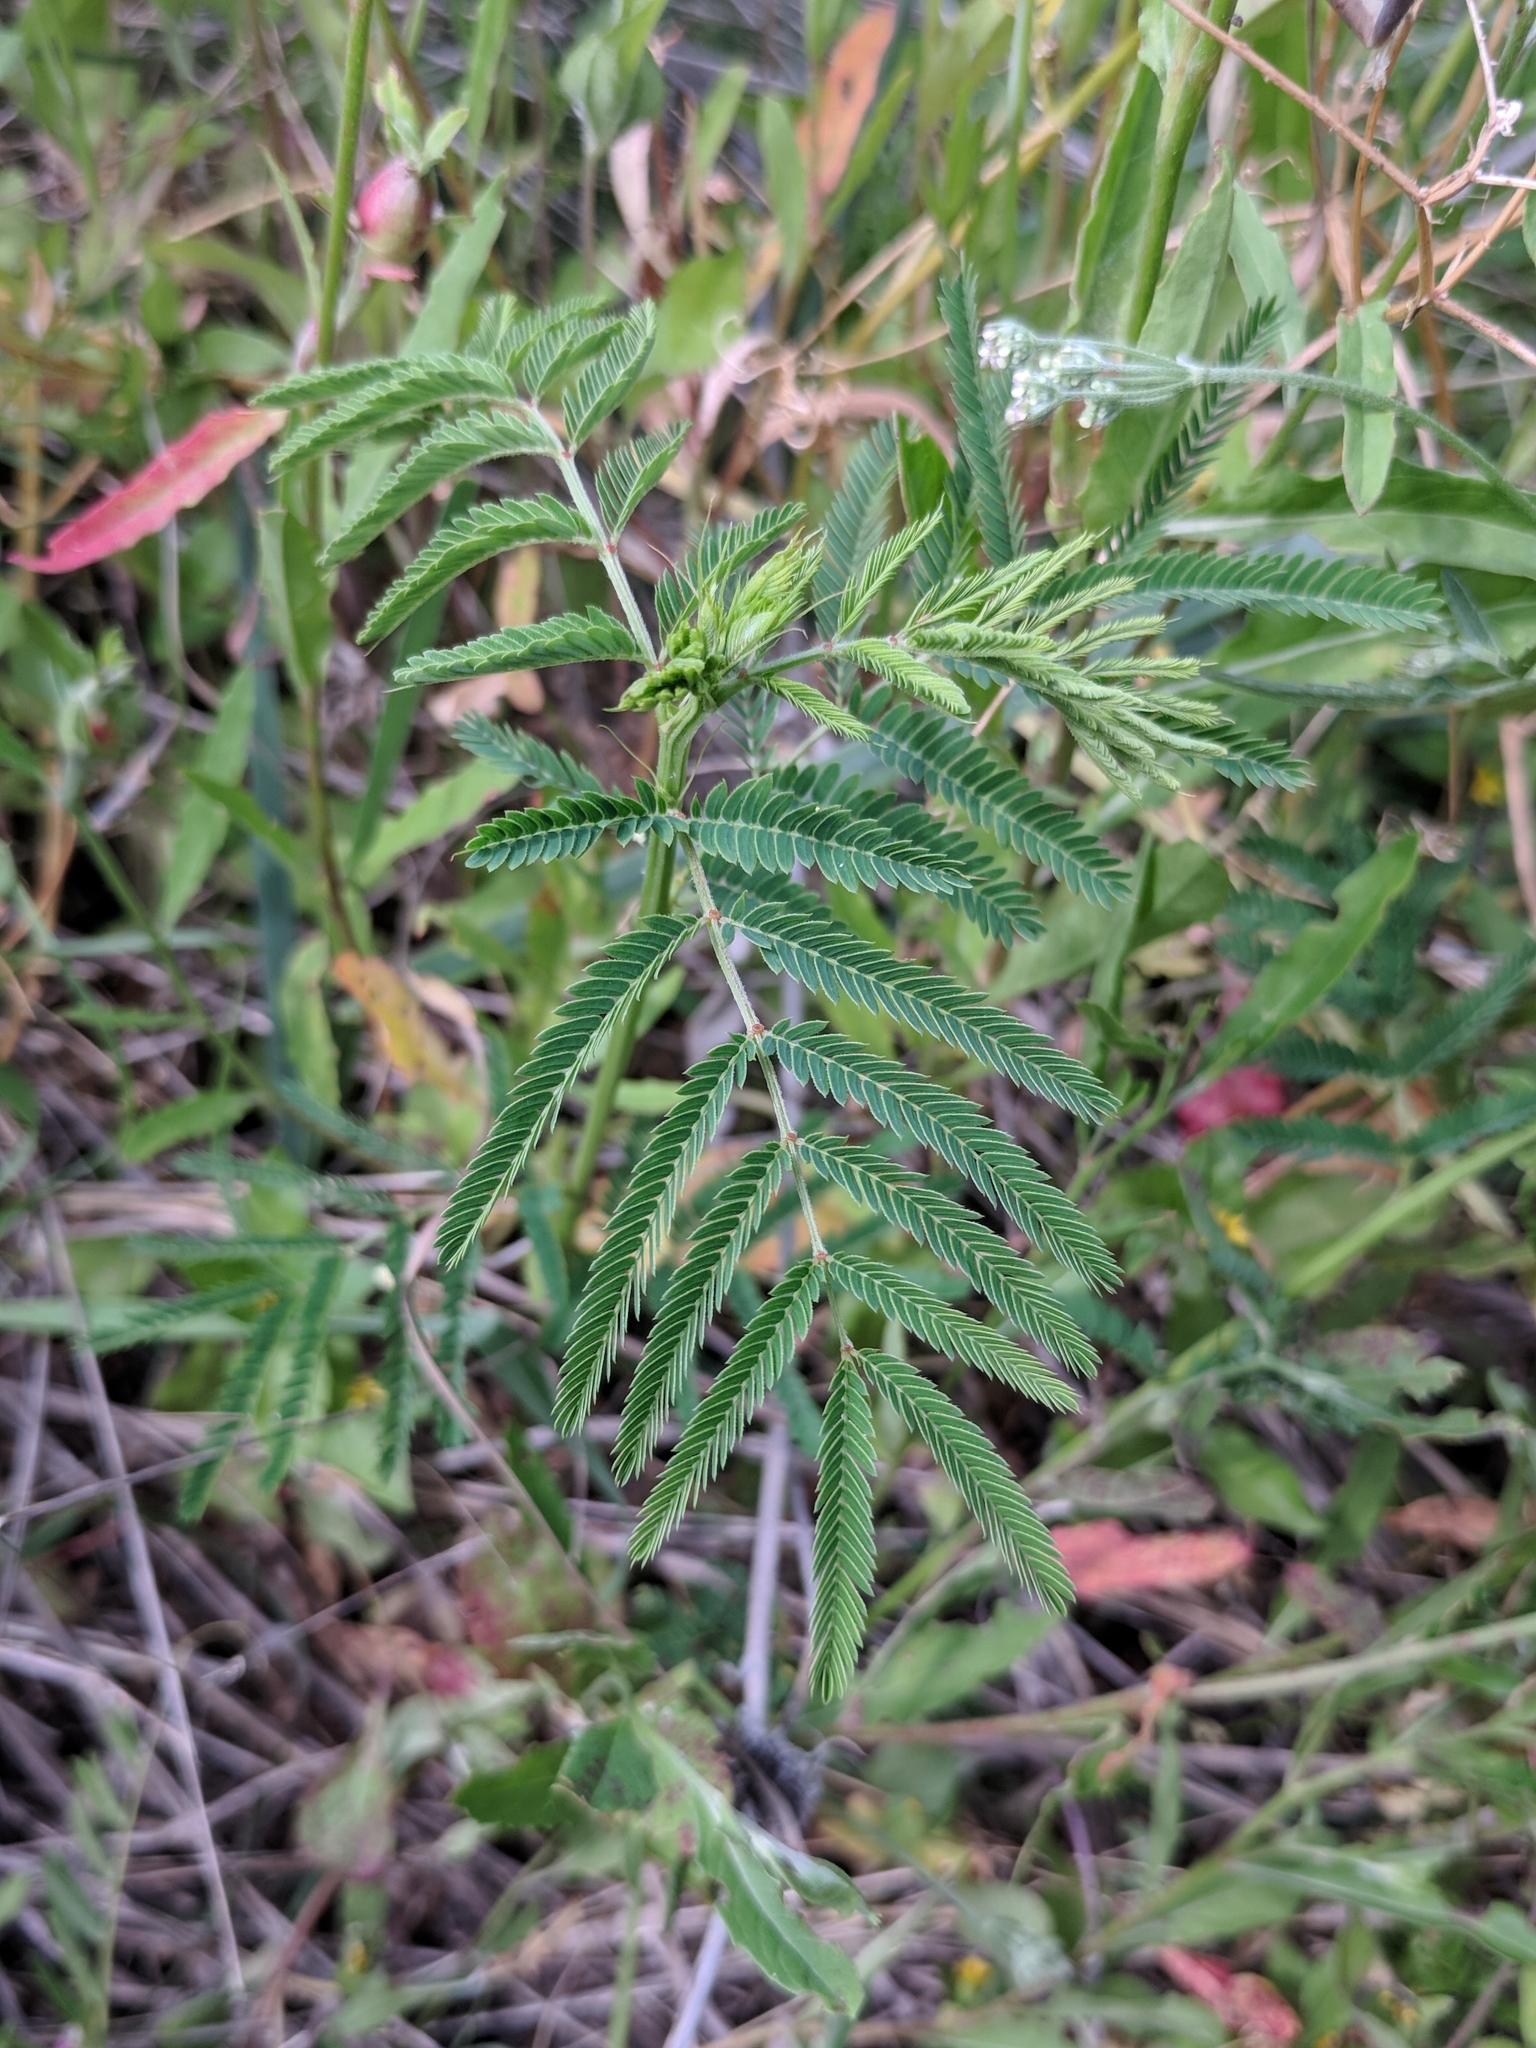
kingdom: Plantae
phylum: Tracheophyta
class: Magnoliopsida
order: Fabales
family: Fabaceae
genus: Desmanthus
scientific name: Desmanthus illinoensis
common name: Illinois bundle-flower
